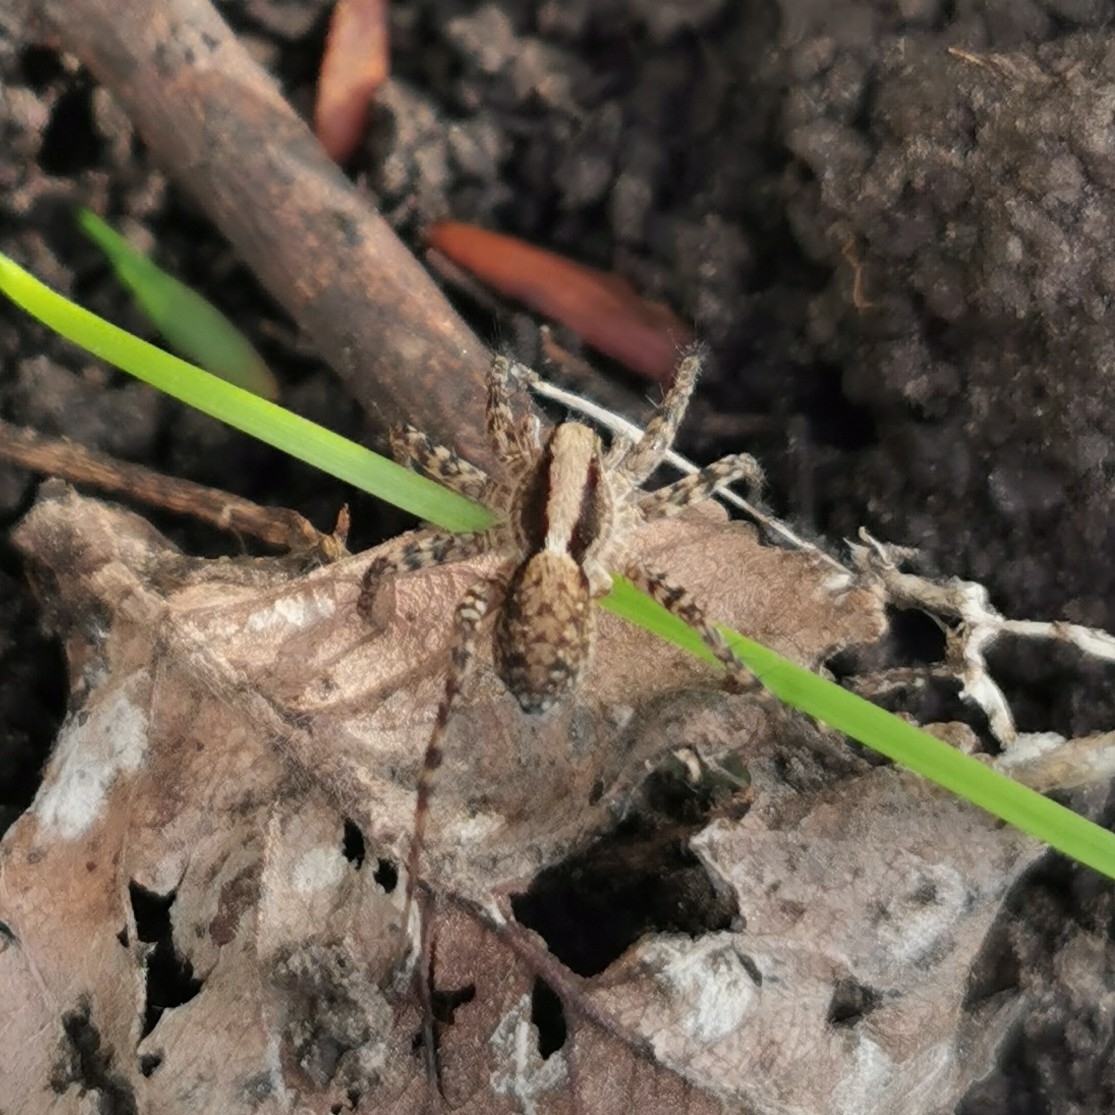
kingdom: Animalia
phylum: Arthropoda
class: Arachnida
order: Araneae
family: Lycosidae
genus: Pardosa
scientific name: Pardosa
